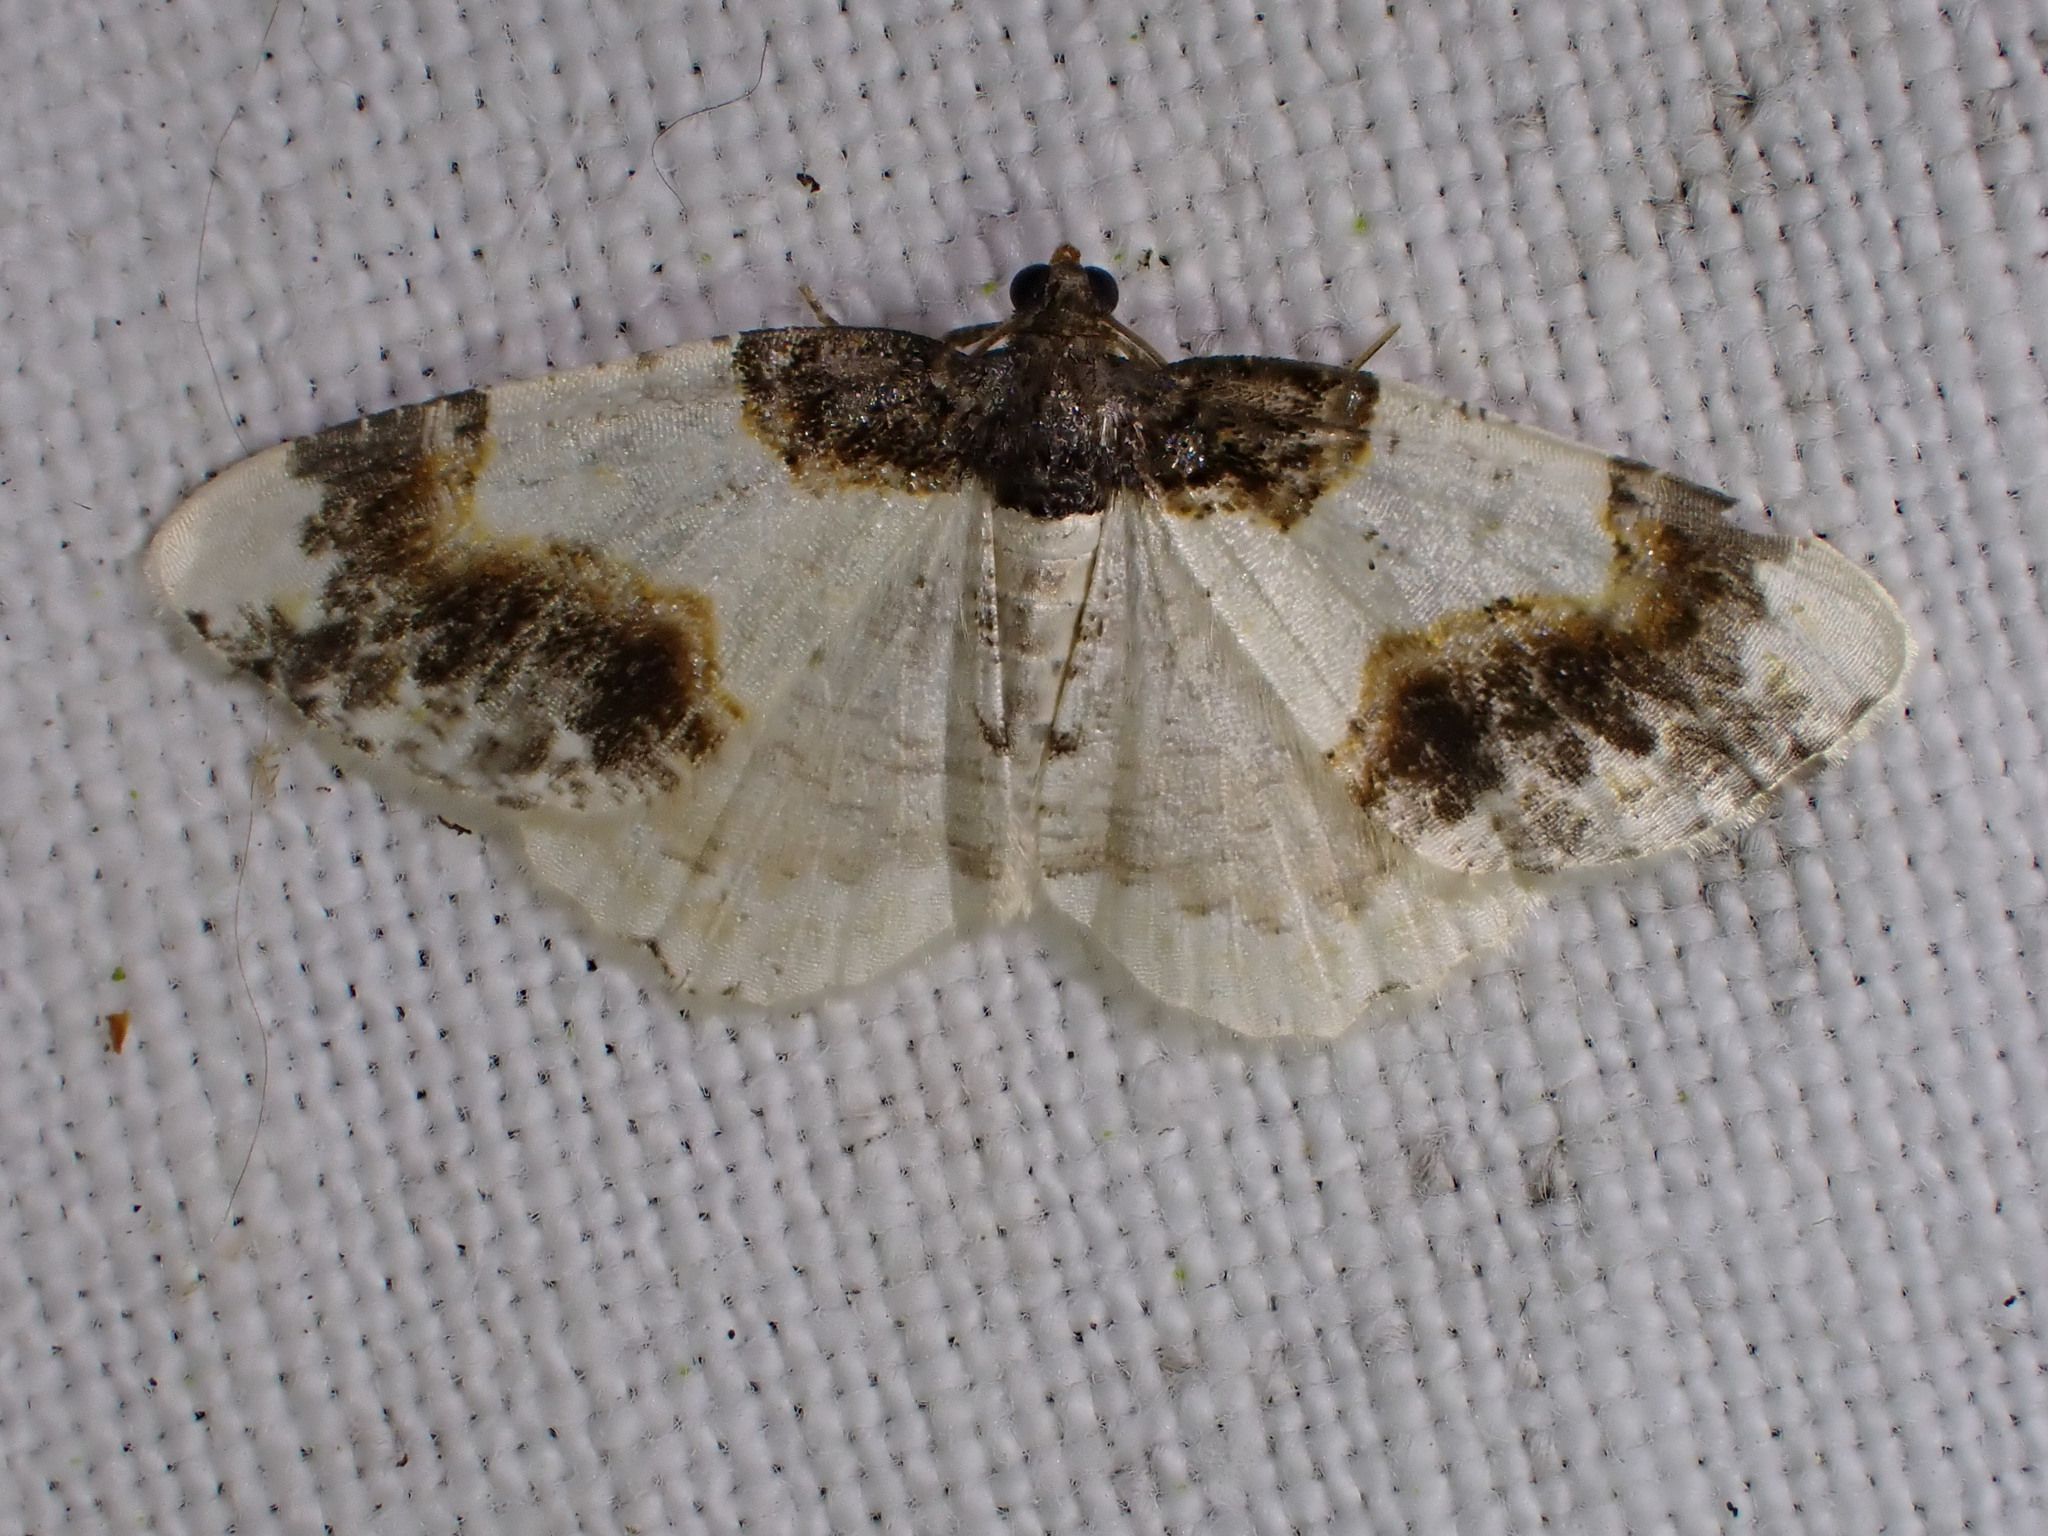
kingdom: Animalia
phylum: Arthropoda
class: Insecta
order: Lepidoptera
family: Geometridae
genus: Ligdia
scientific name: Ligdia adustata
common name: Scorched carpet
